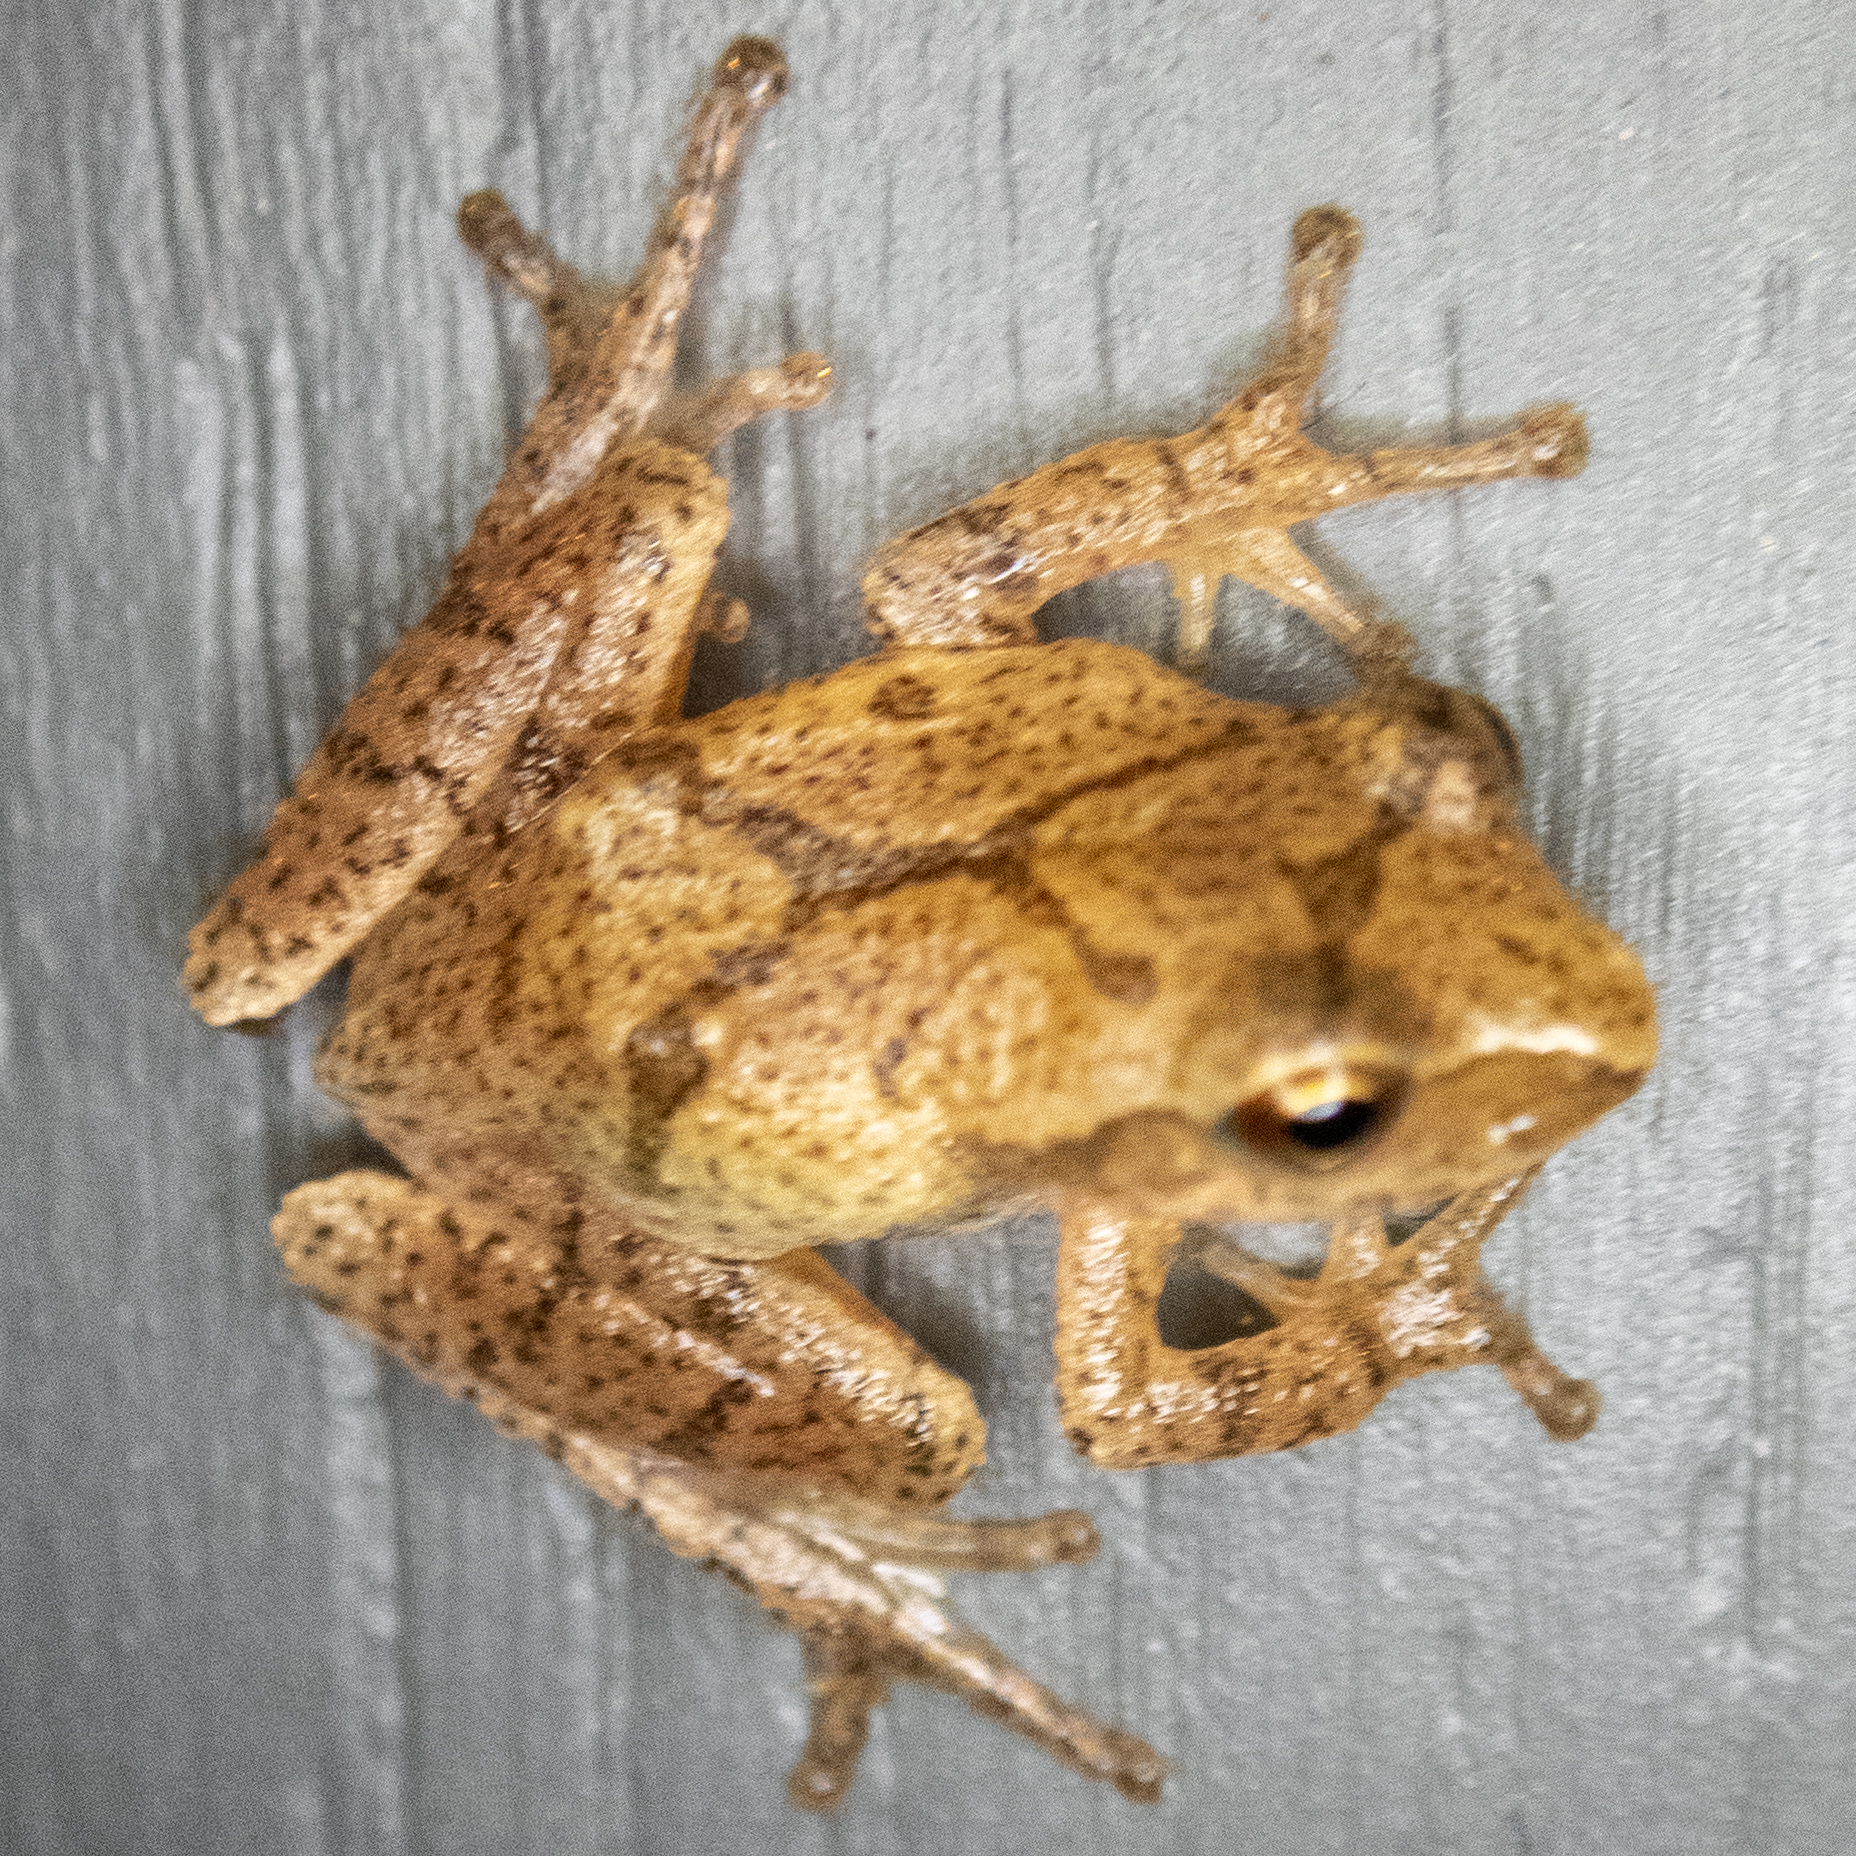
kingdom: Animalia
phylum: Chordata
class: Amphibia
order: Anura
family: Hylidae
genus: Pseudacris
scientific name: Pseudacris crucifer
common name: Spring peeper
